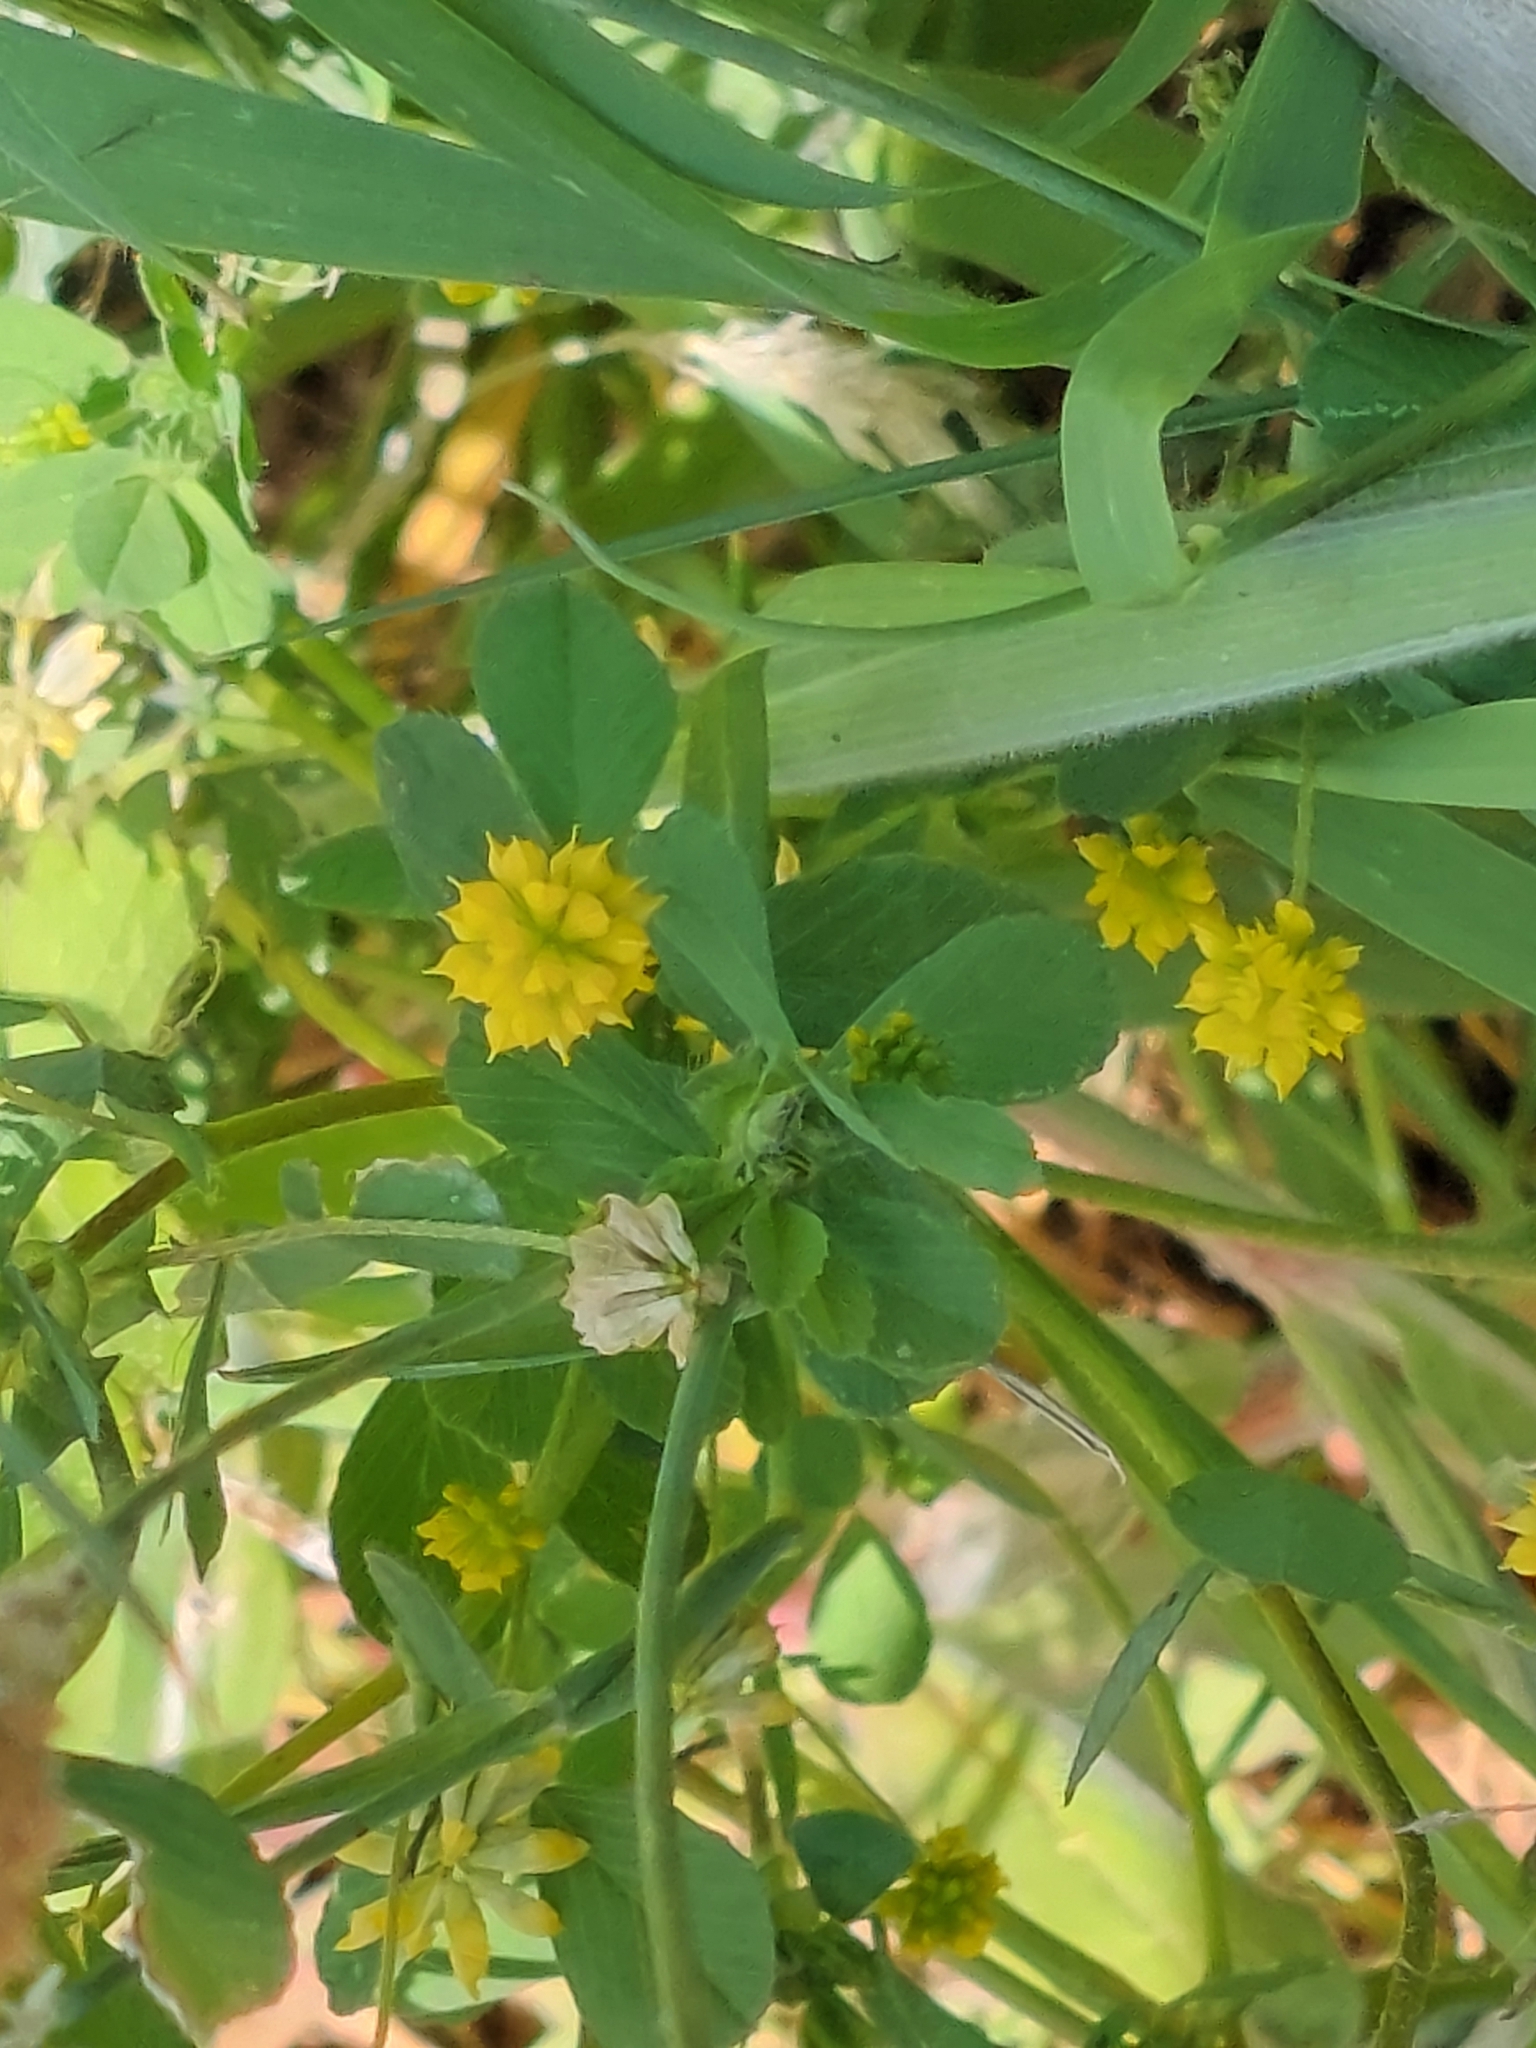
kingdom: Plantae
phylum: Tracheophyta
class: Magnoliopsida
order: Fabales
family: Fabaceae
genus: Trifolium
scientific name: Trifolium dubium
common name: Suckling clover
